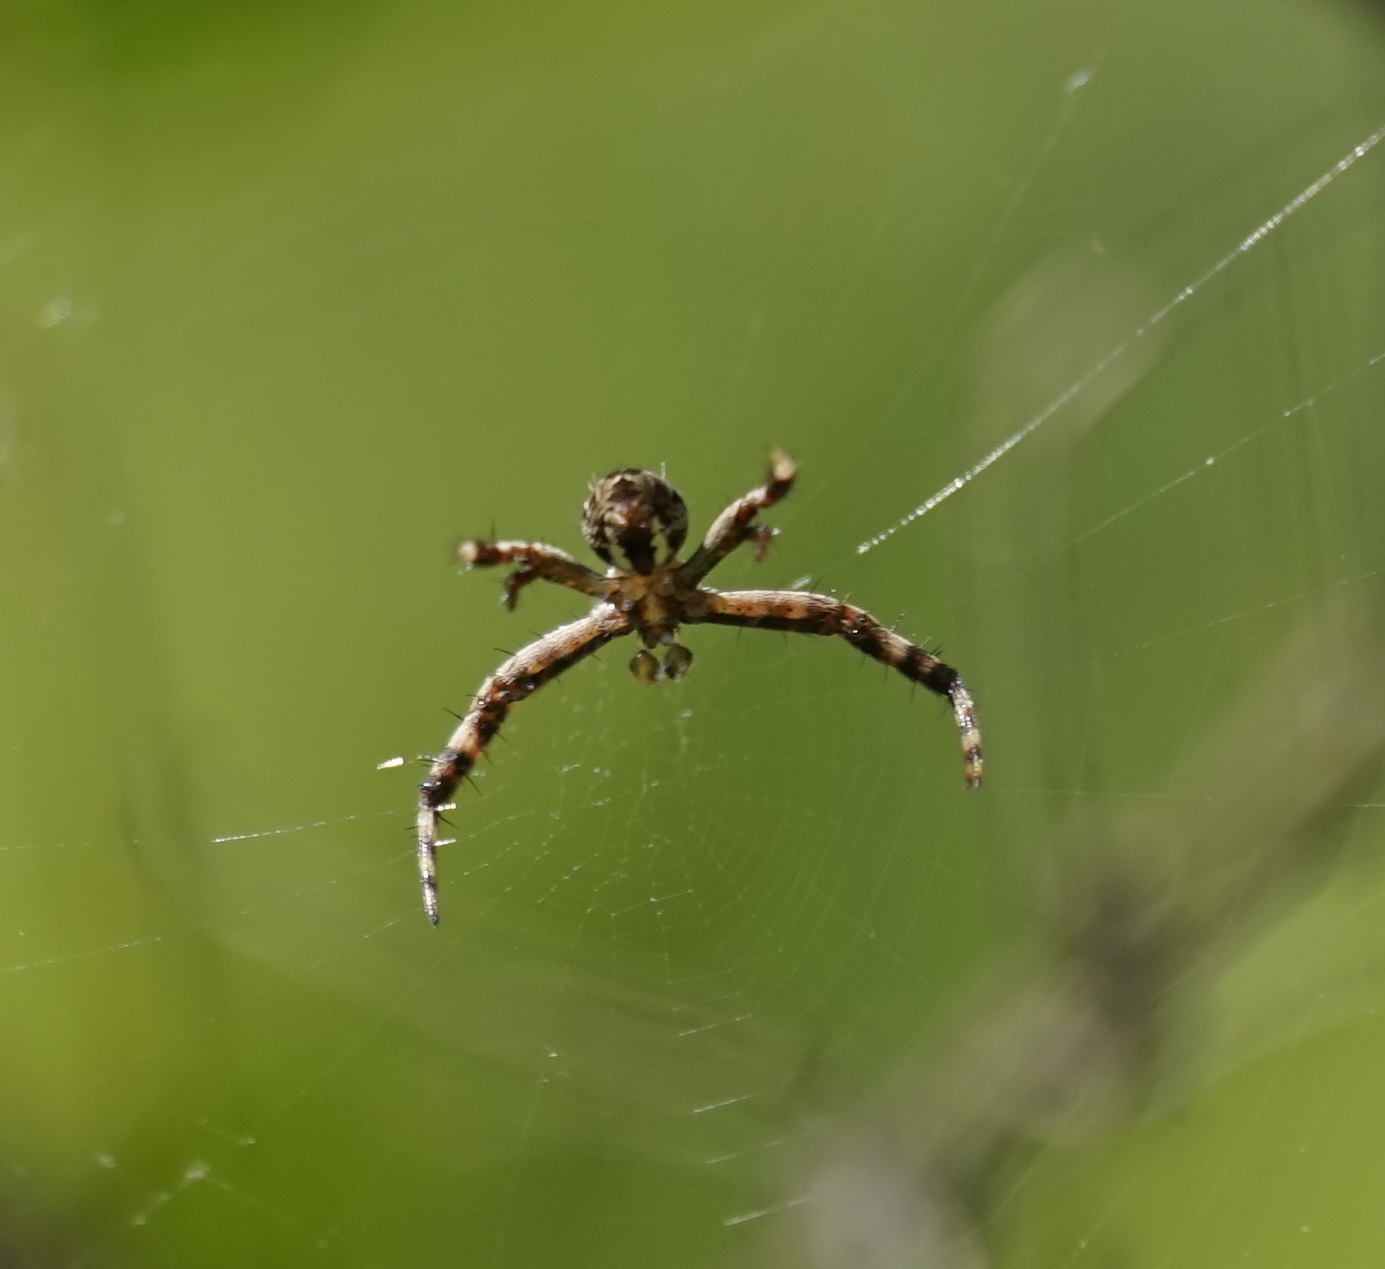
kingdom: Animalia
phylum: Arthropoda
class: Arachnida
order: Araneae
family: Araneidae
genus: Argiope
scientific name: Argiope keyserlingi
